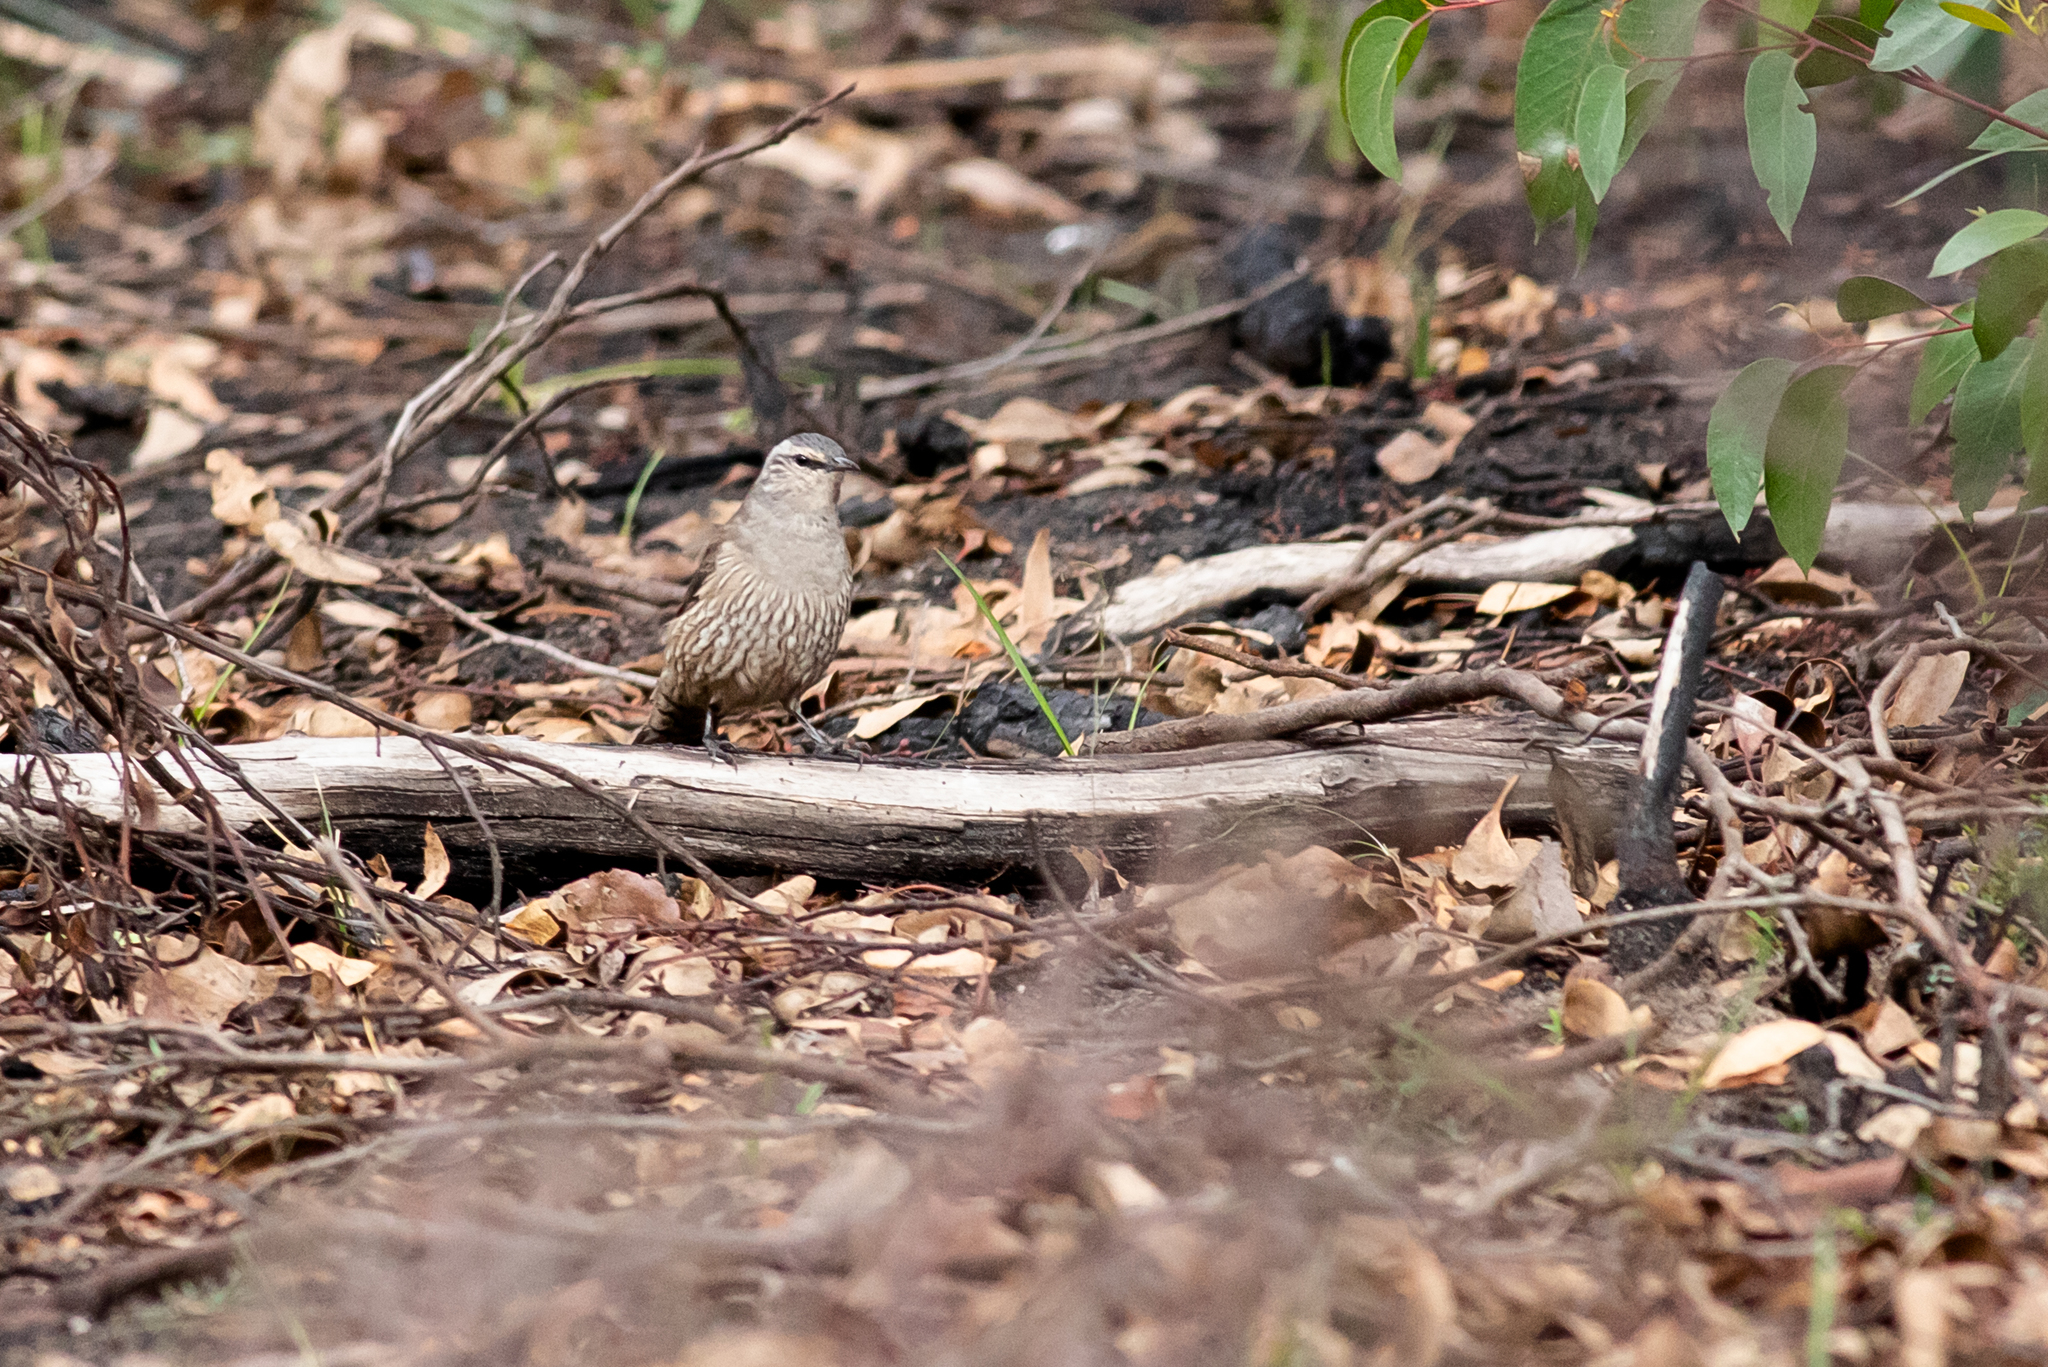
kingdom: Animalia
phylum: Chordata
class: Aves
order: Passeriformes
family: Climacteridae
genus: Climacteris
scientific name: Climacteris picumnus
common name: Brown treecreeper
